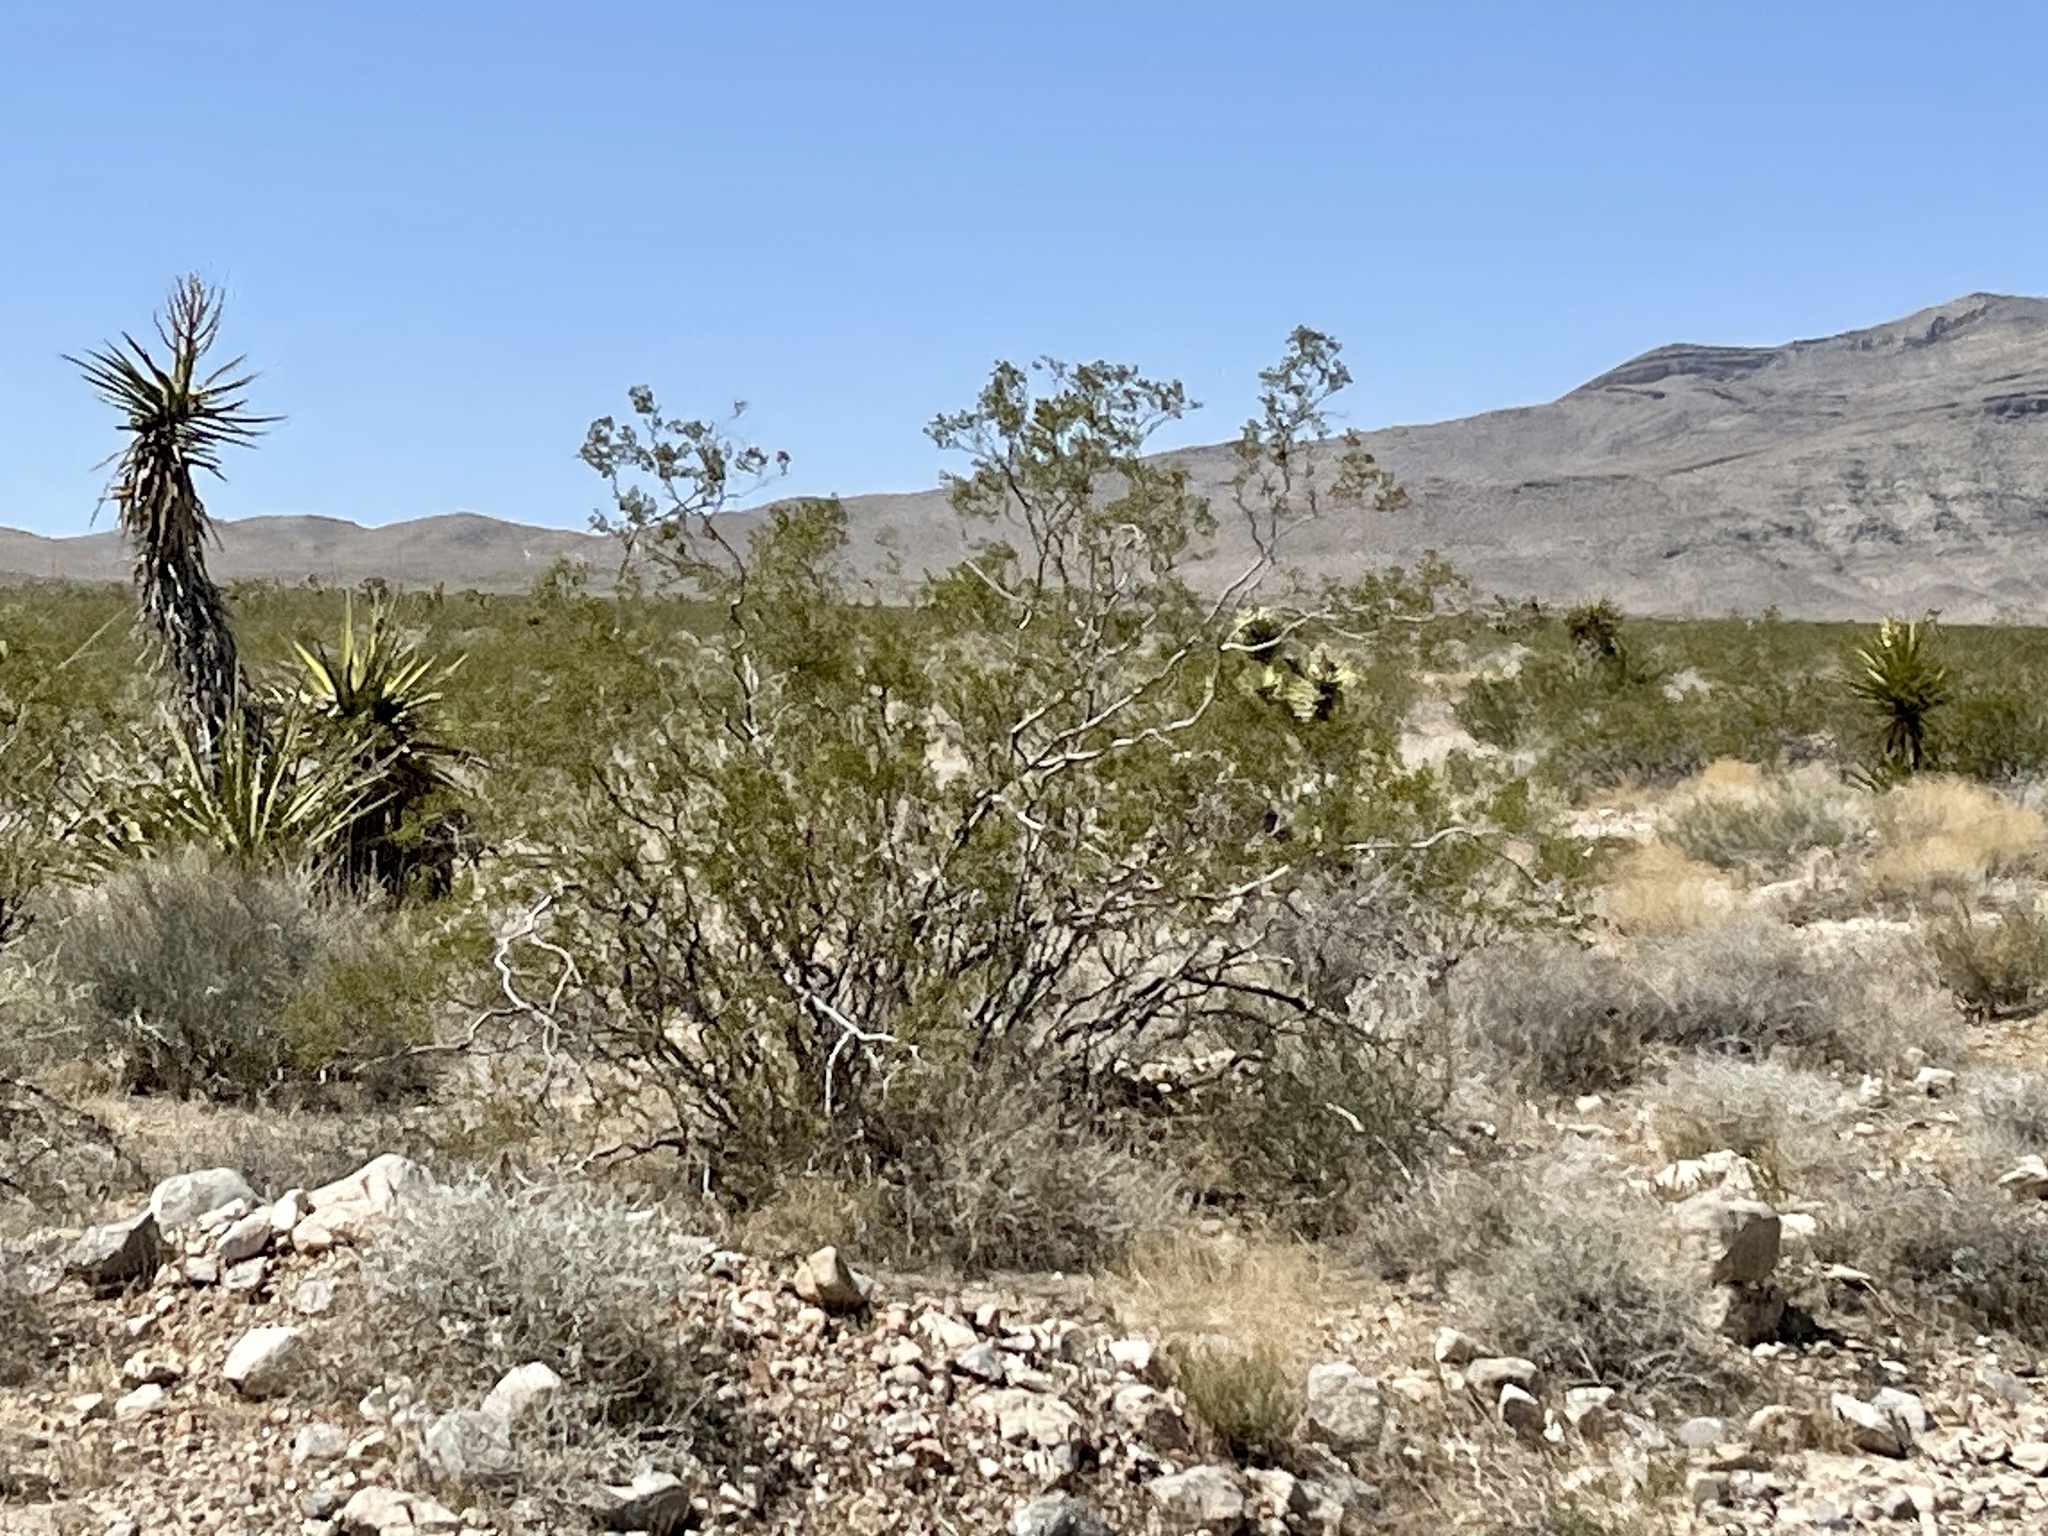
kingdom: Plantae
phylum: Tracheophyta
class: Magnoliopsida
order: Zygophyllales
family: Zygophyllaceae
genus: Larrea
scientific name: Larrea tridentata
